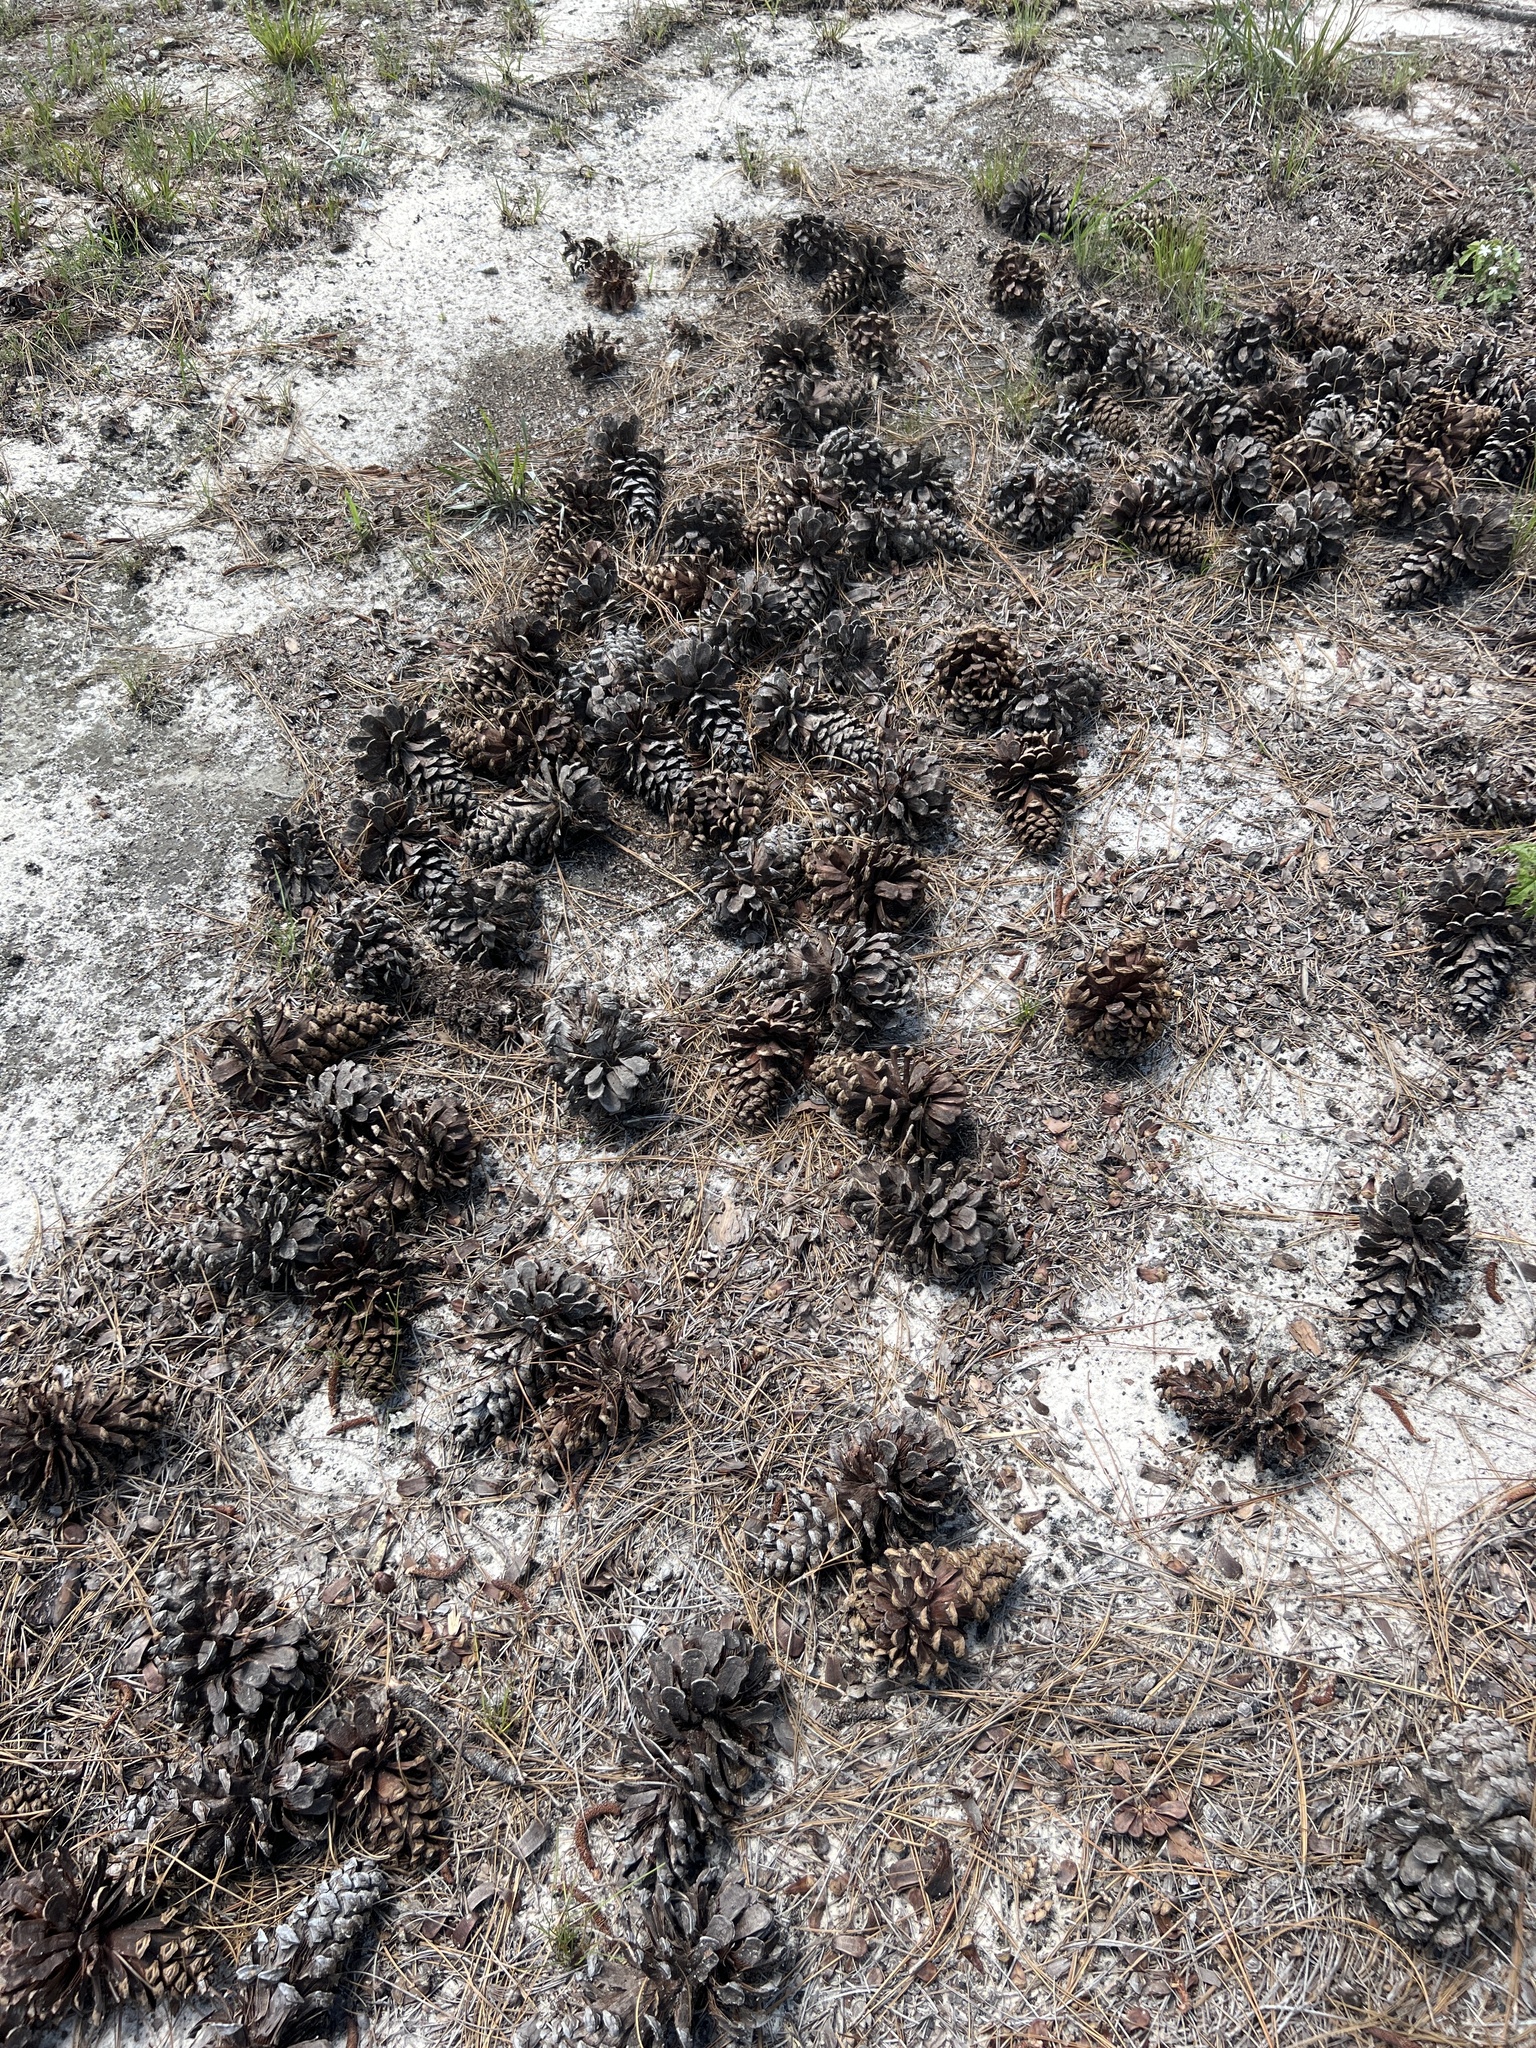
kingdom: Plantae
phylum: Tracheophyta
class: Pinopsida
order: Pinales
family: Pinaceae
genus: Pinus
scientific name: Pinus palustris
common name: Longleaf pine
